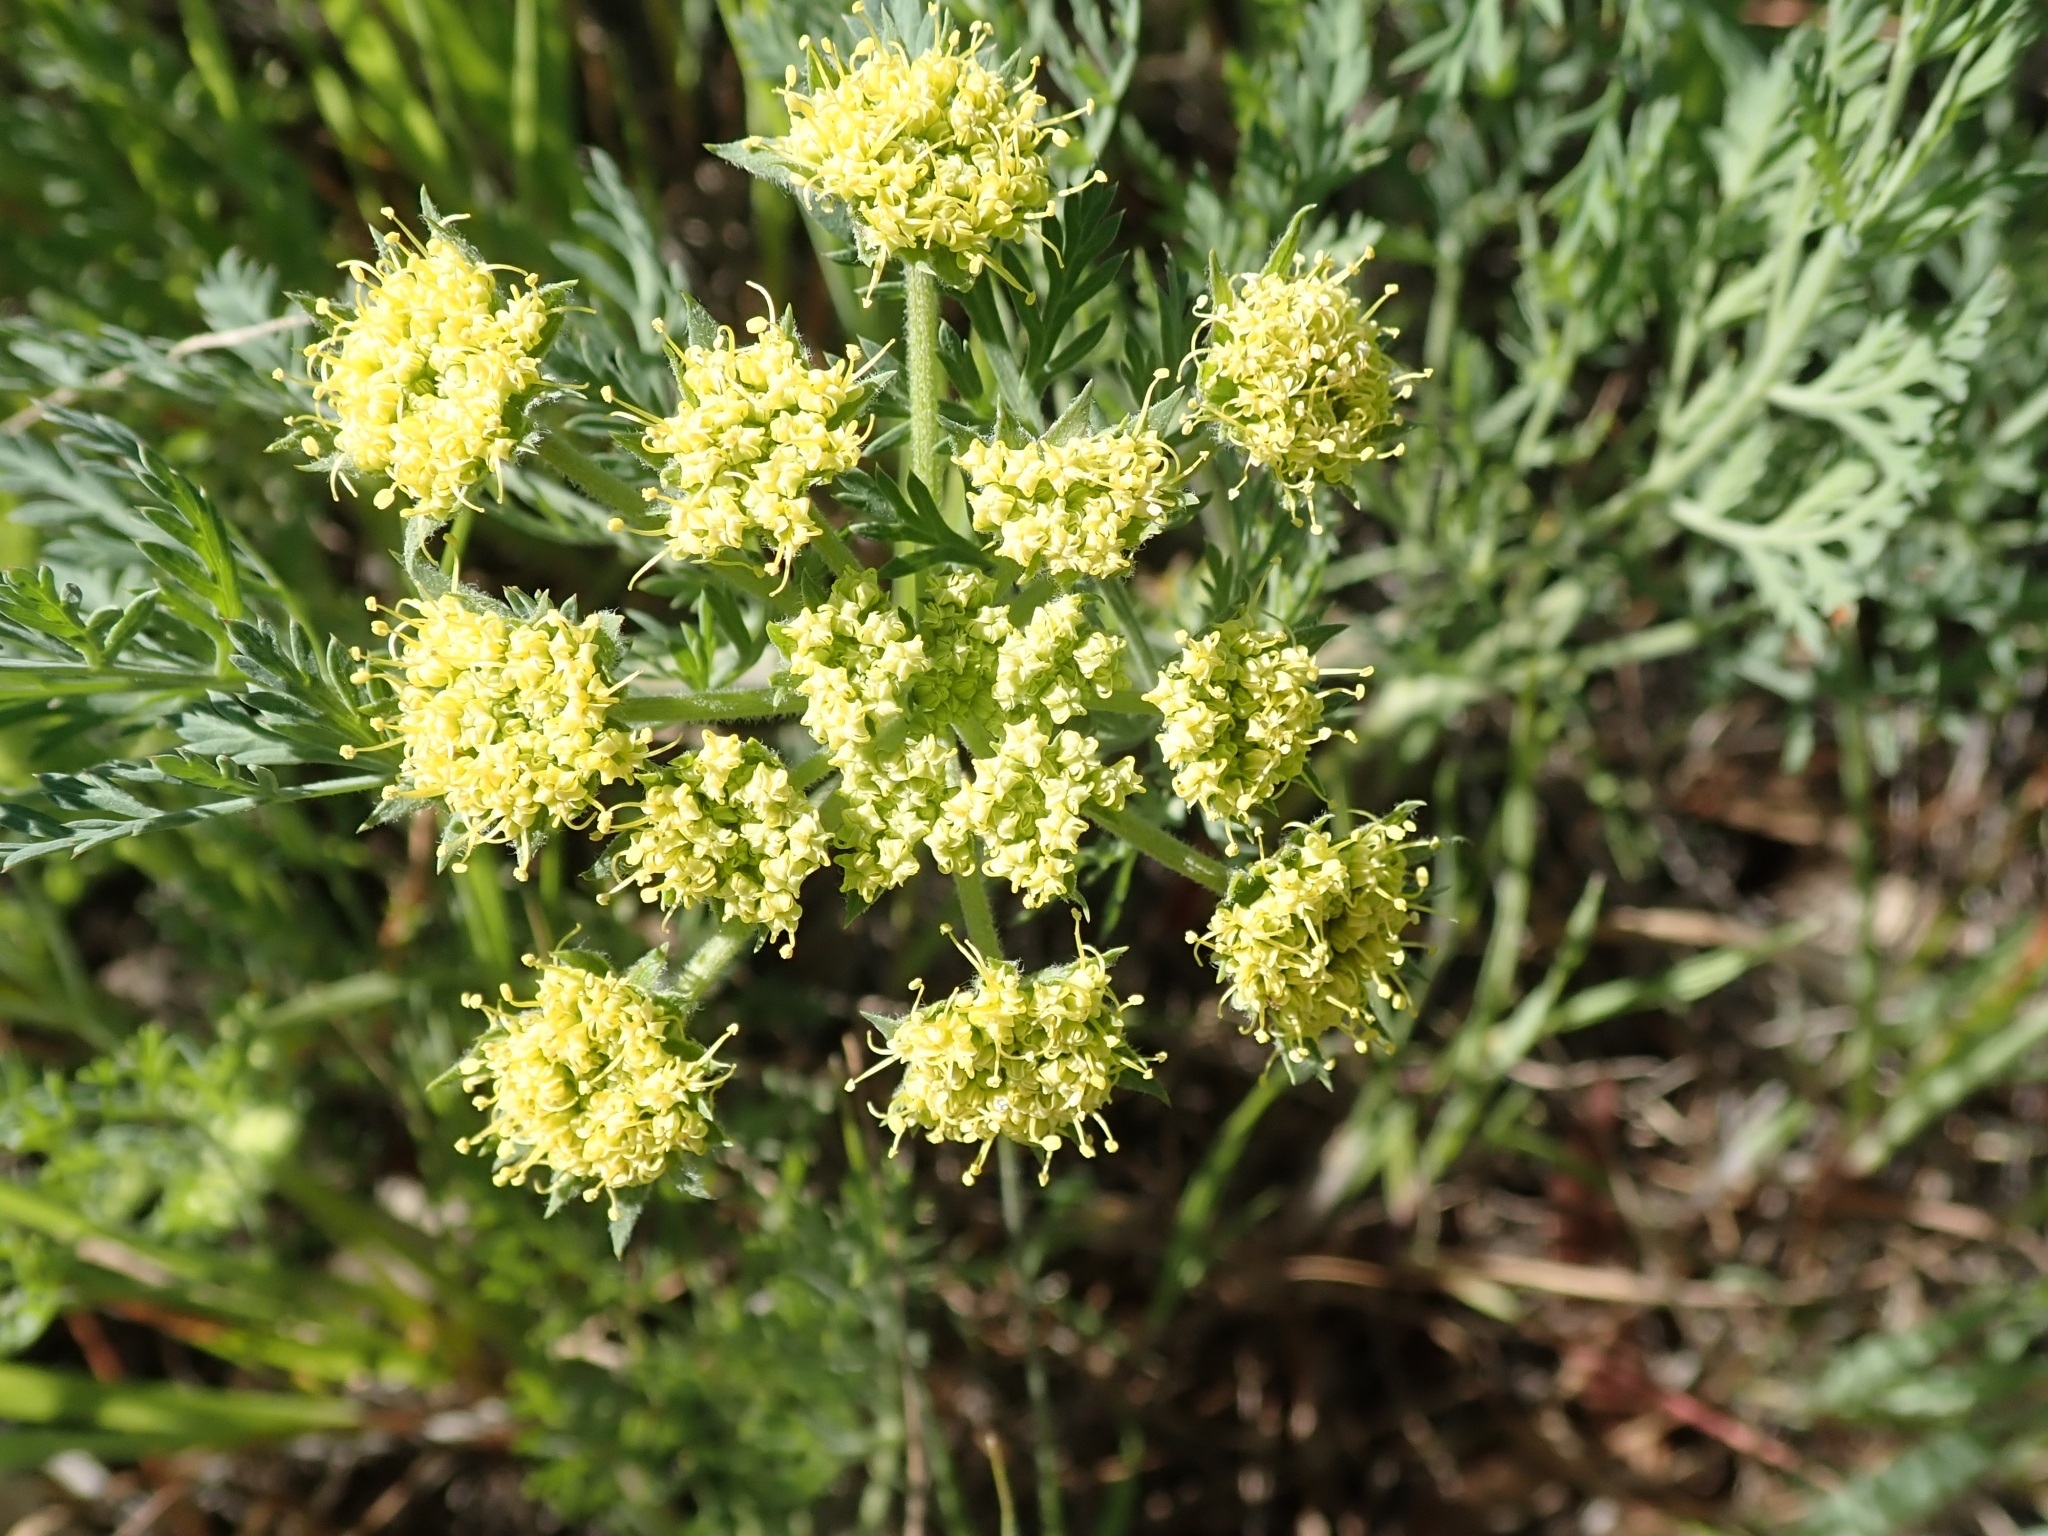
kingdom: Plantae
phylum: Tracheophyta
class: Magnoliopsida
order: Apiales
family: Apiaceae
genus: Lomatium
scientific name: Lomatium dasycarpum
